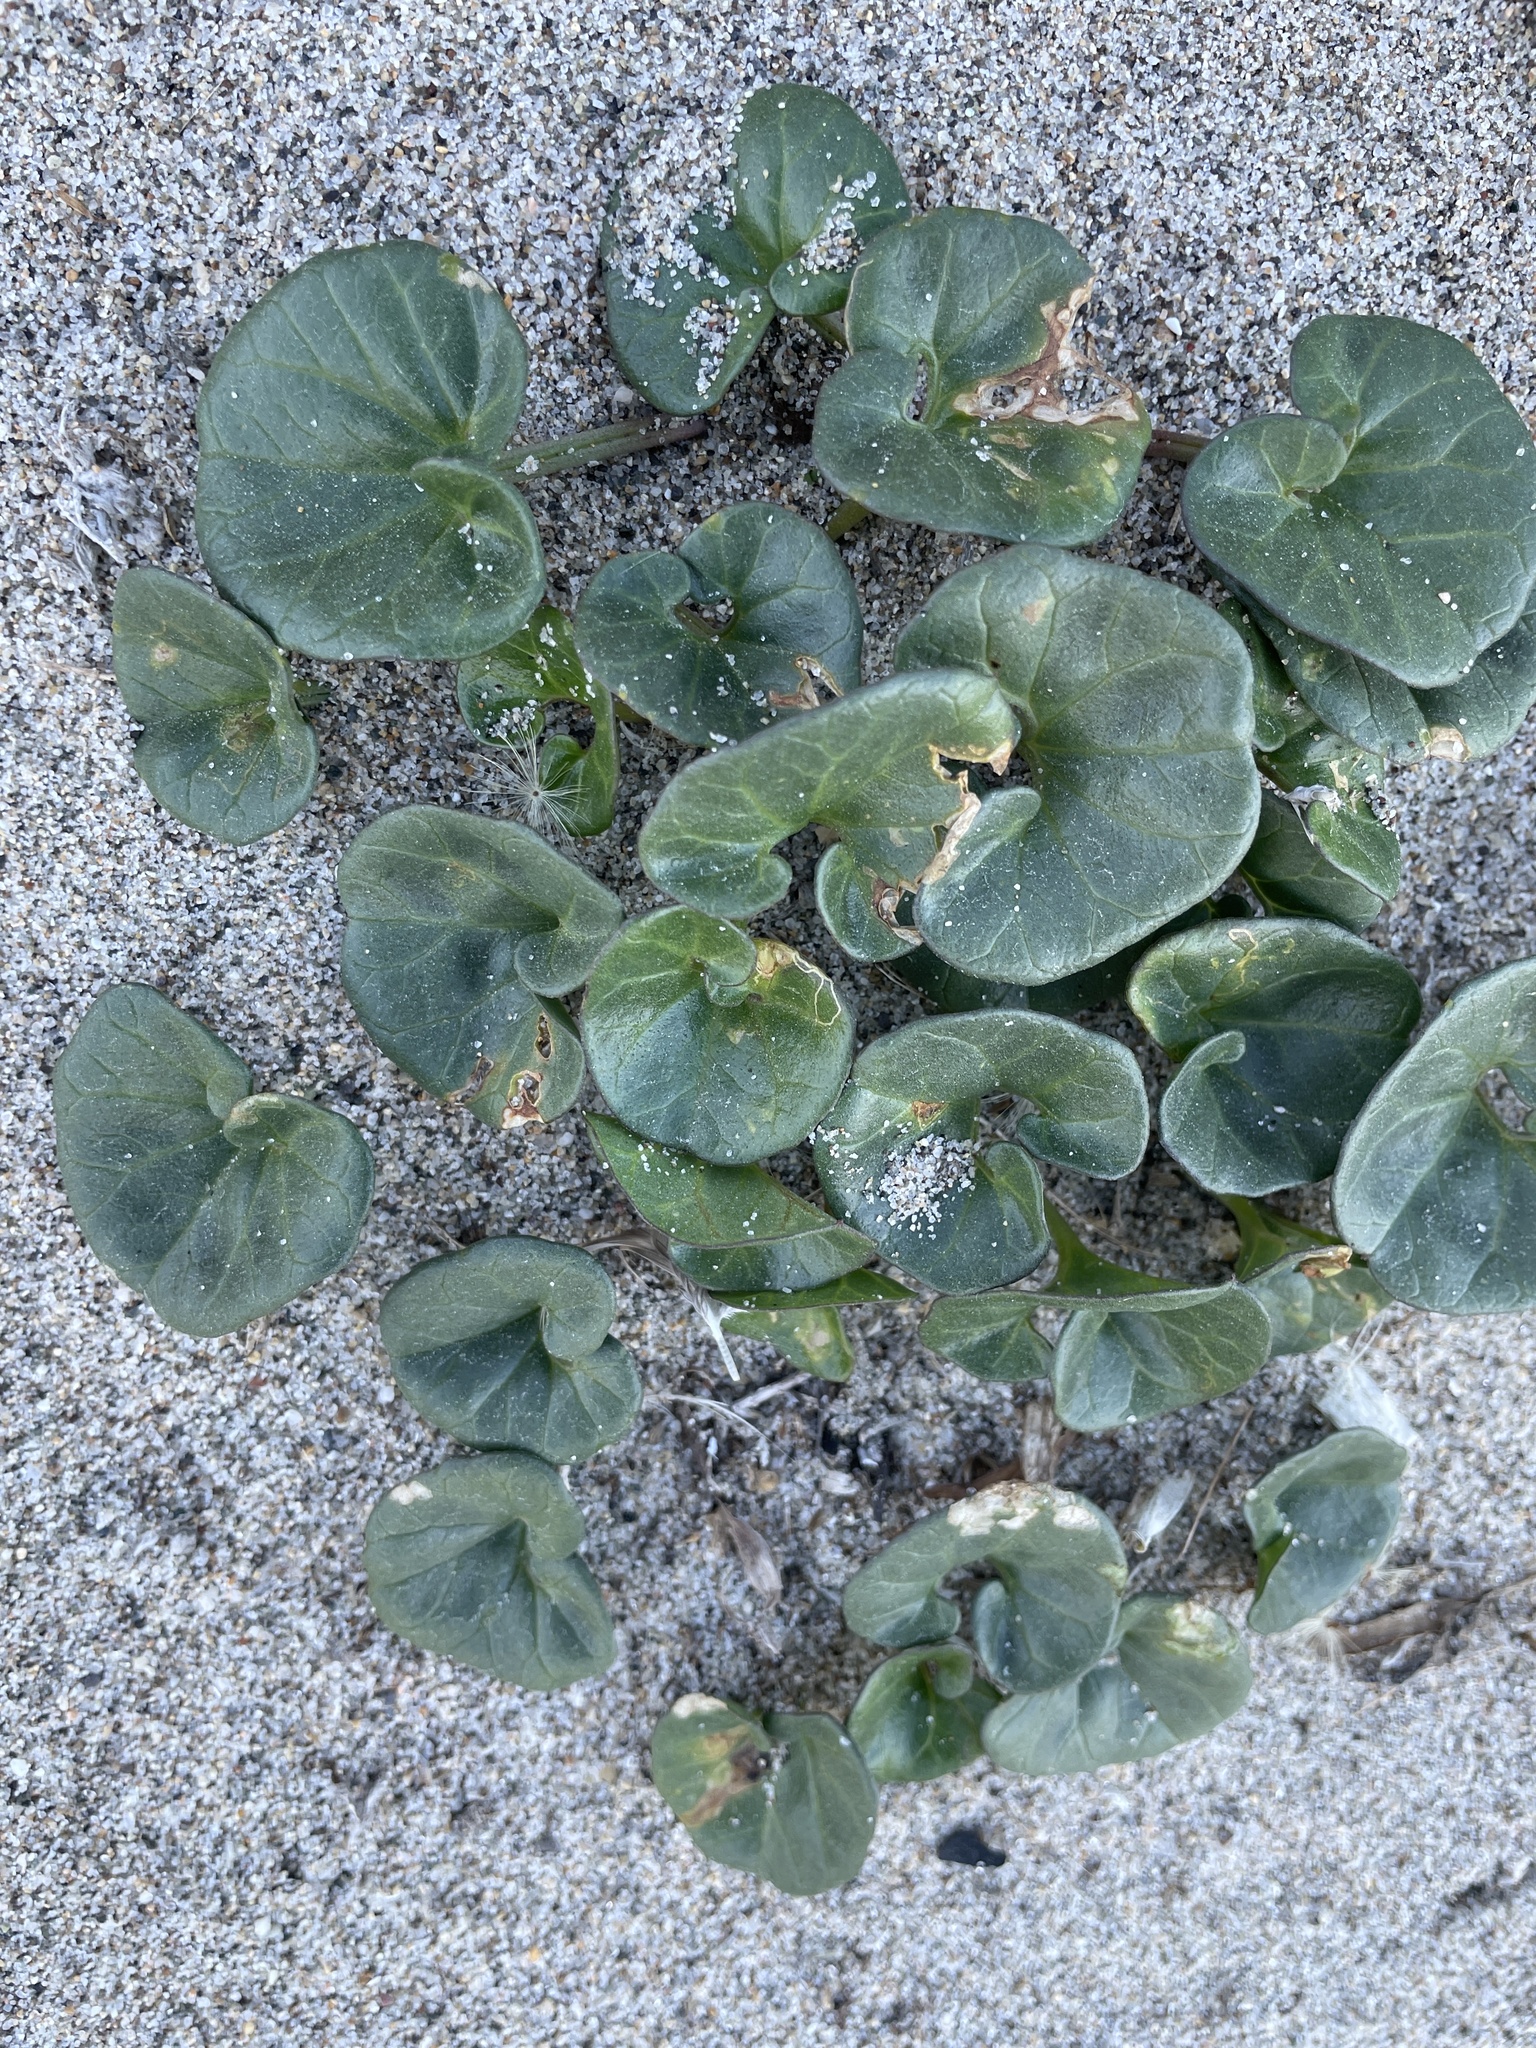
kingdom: Plantae
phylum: Tracheophyta
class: Magnoliopsida
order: Solanales
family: Convolvulaceae
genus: Calystegia
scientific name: Calystegia soldanella
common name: Sea bindweed
